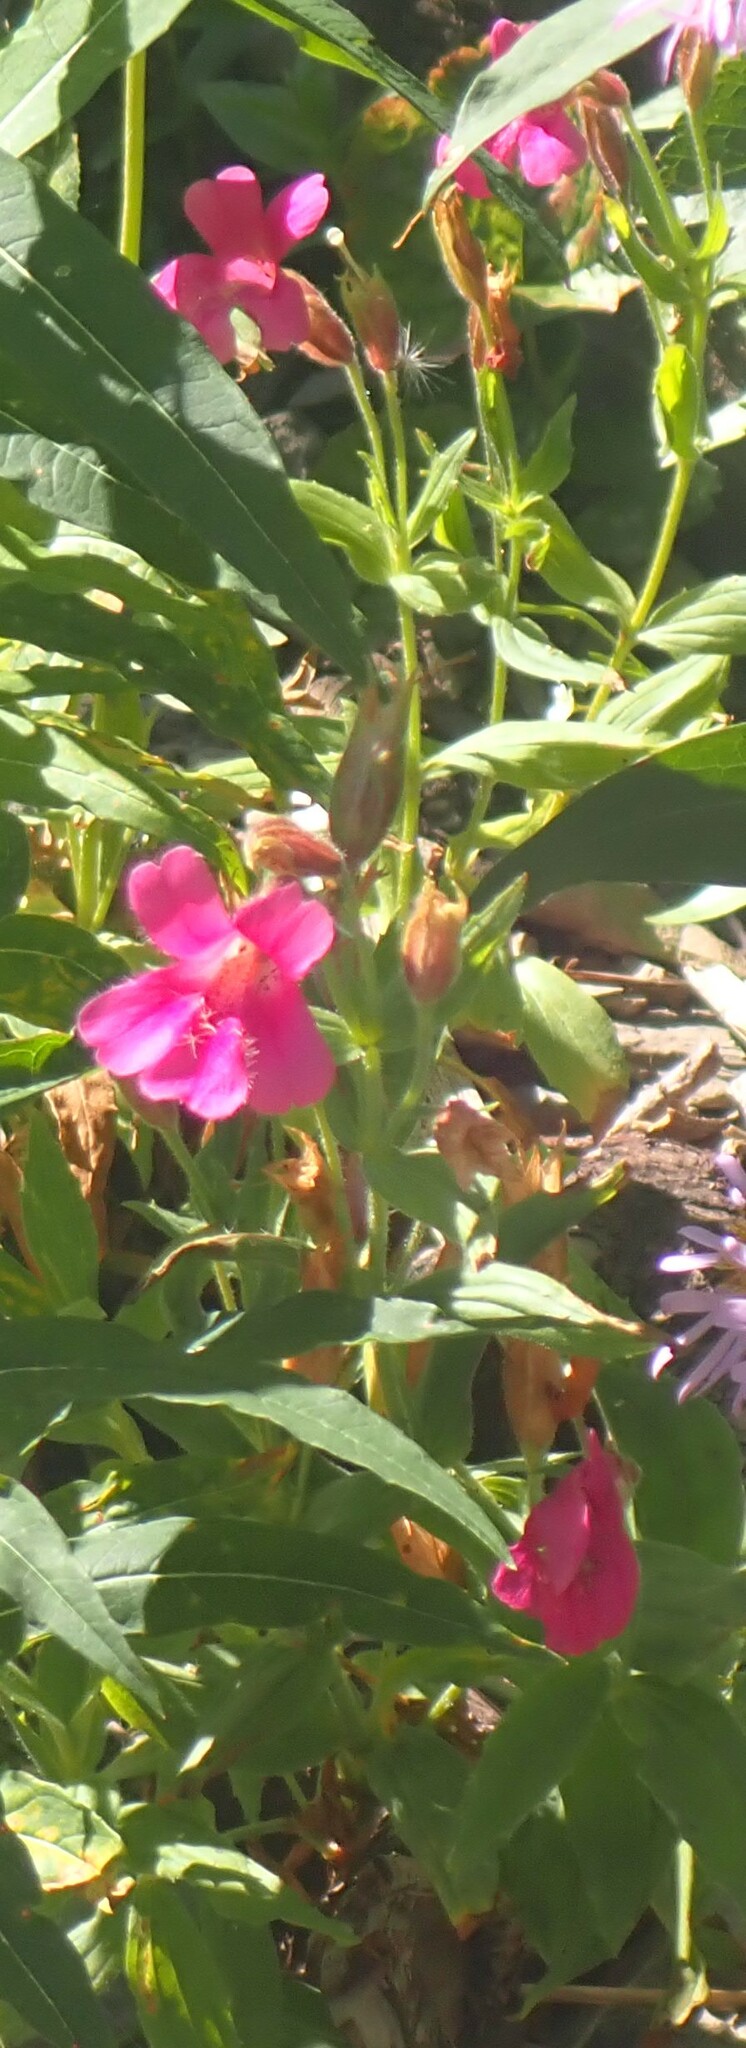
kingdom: Plantae
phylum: Tracheophyta
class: Magnoliopsida
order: Lamiales
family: Phrymaceae
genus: Erythranthe
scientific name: Erythranthe lewisii
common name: Lewis's monkey-flower
